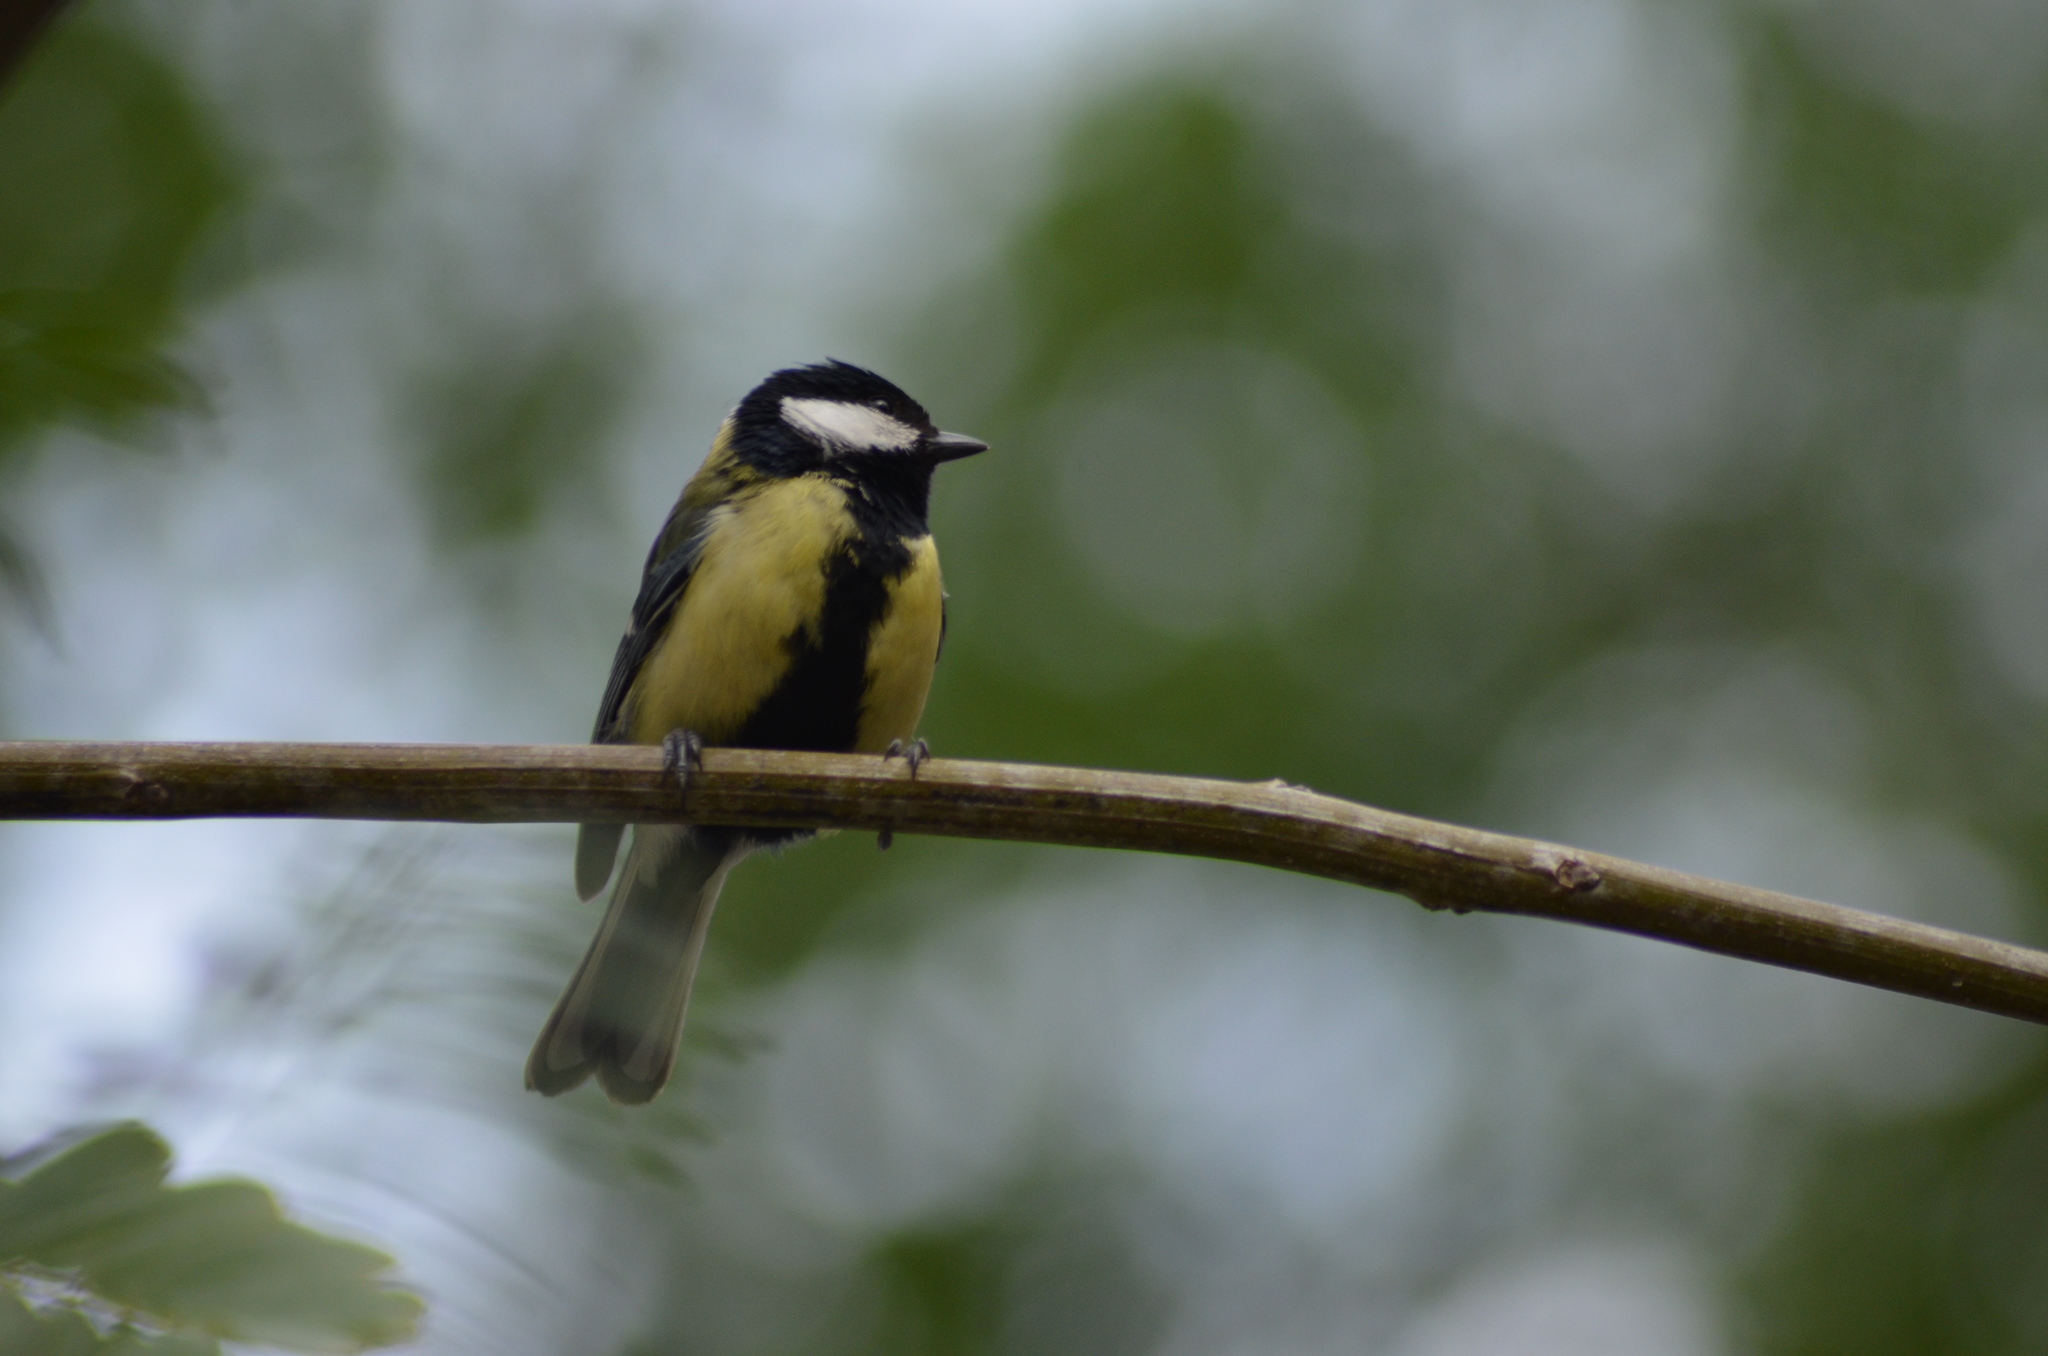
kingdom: Animalia
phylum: Chordata
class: Aves
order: Passeriformes
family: Paridae
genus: Parus
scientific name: Parus major
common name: Great tit
